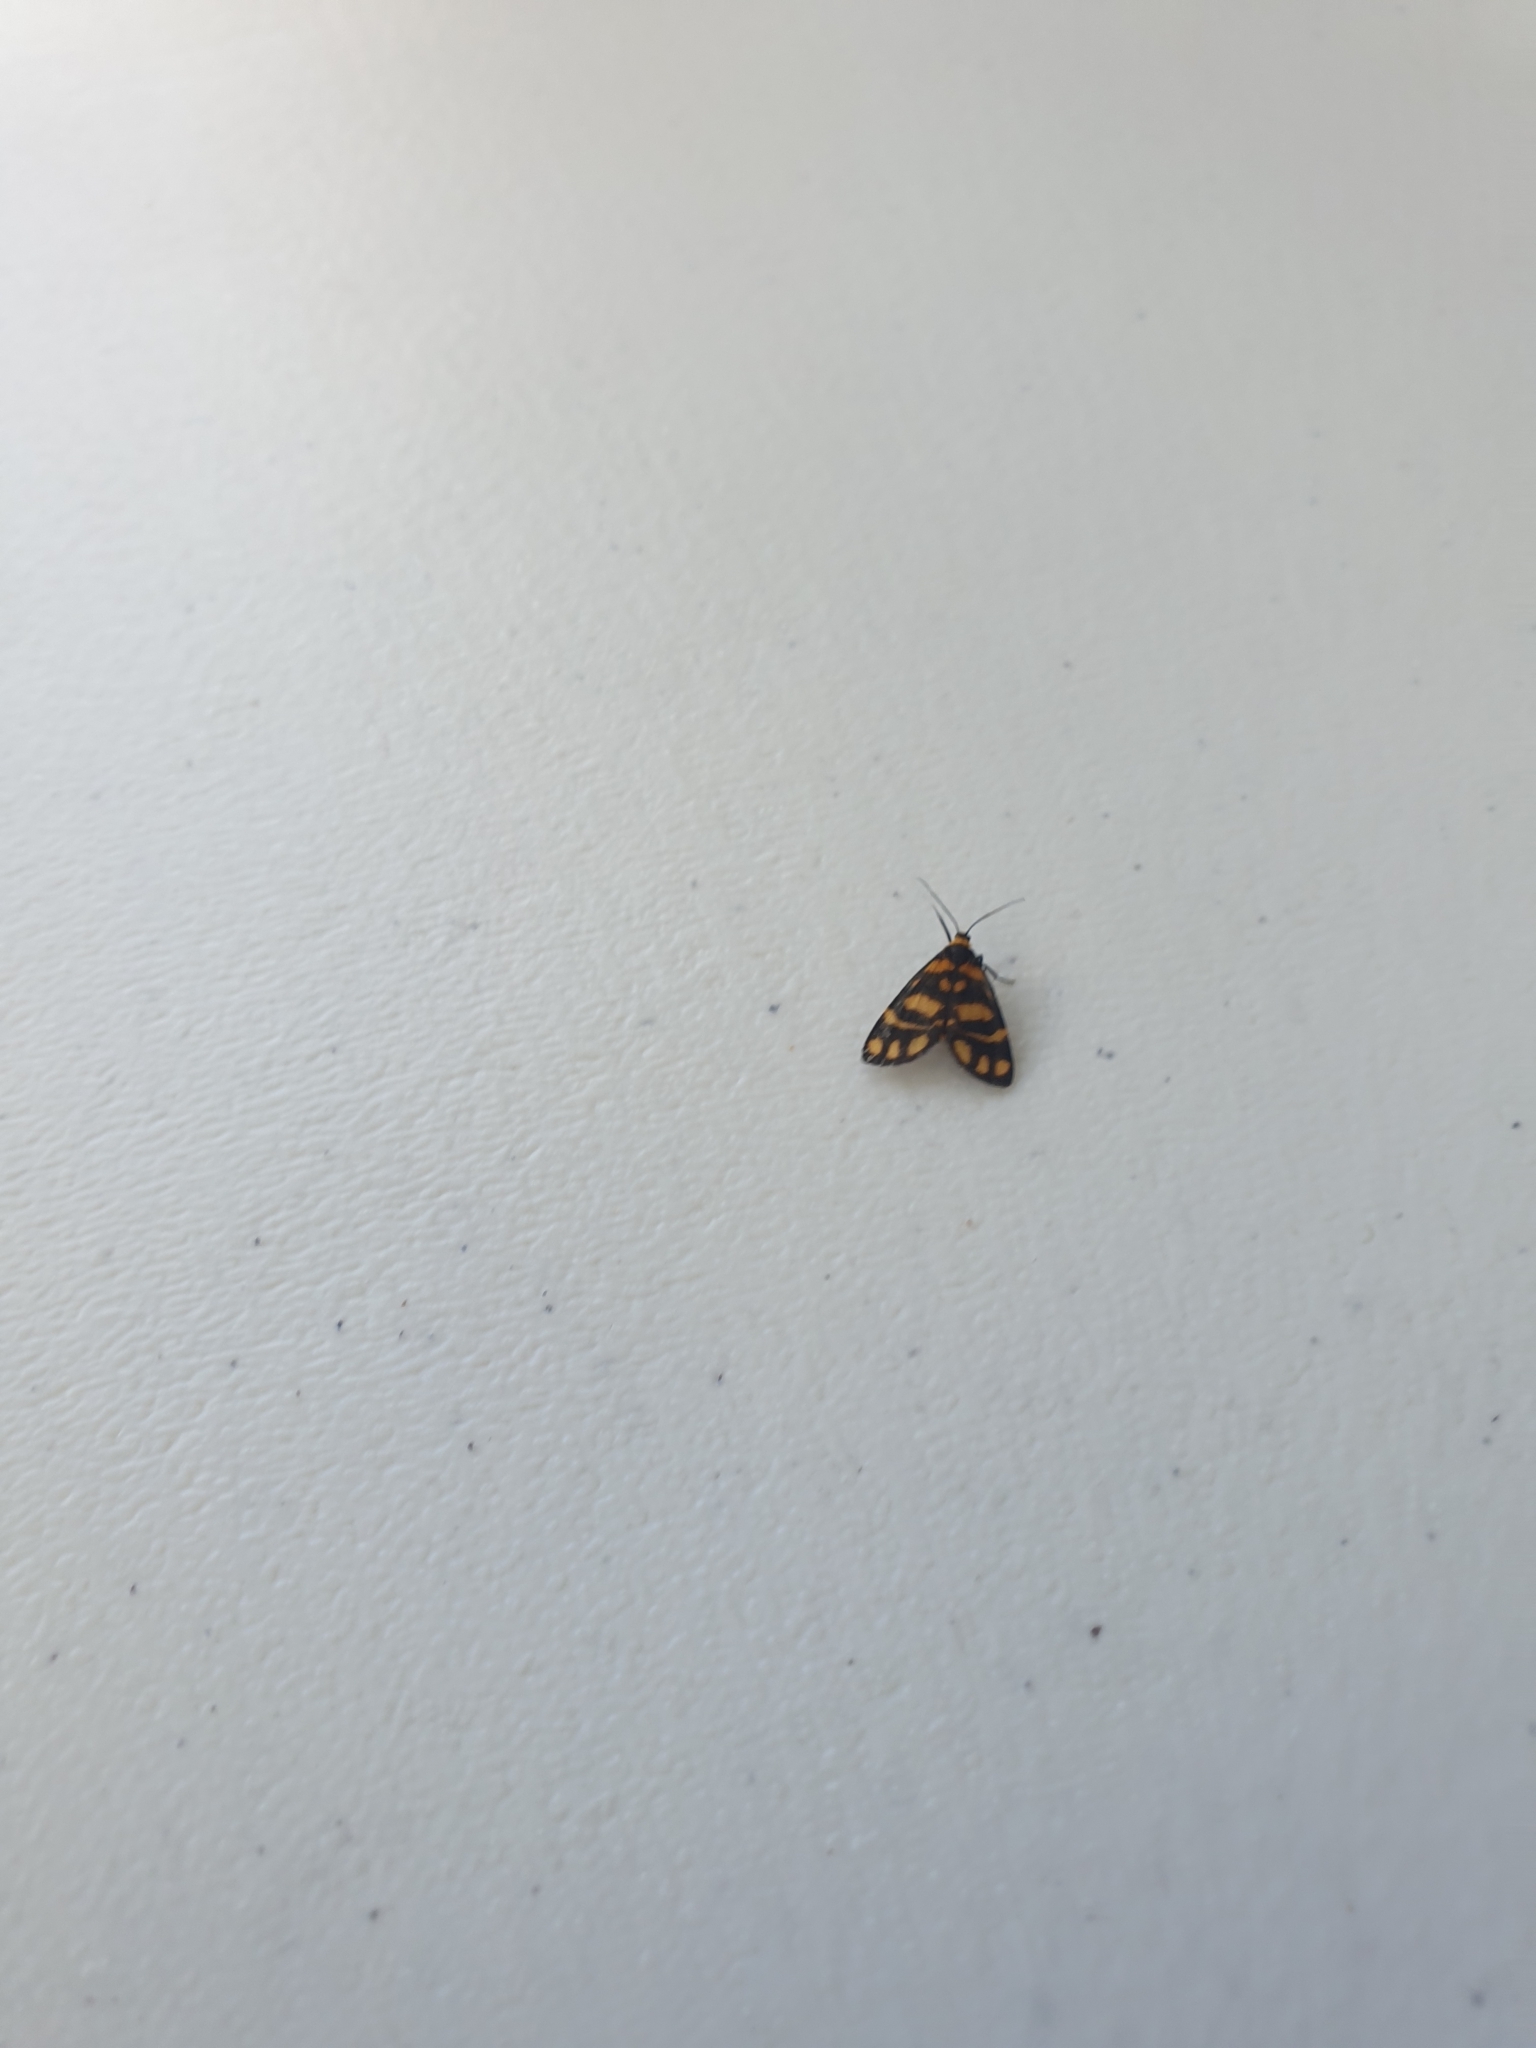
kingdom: Animalia
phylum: Arthropoda
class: Insecta
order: Lepidoptera
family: Erebidae
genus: Asura
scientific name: Asura lydia
